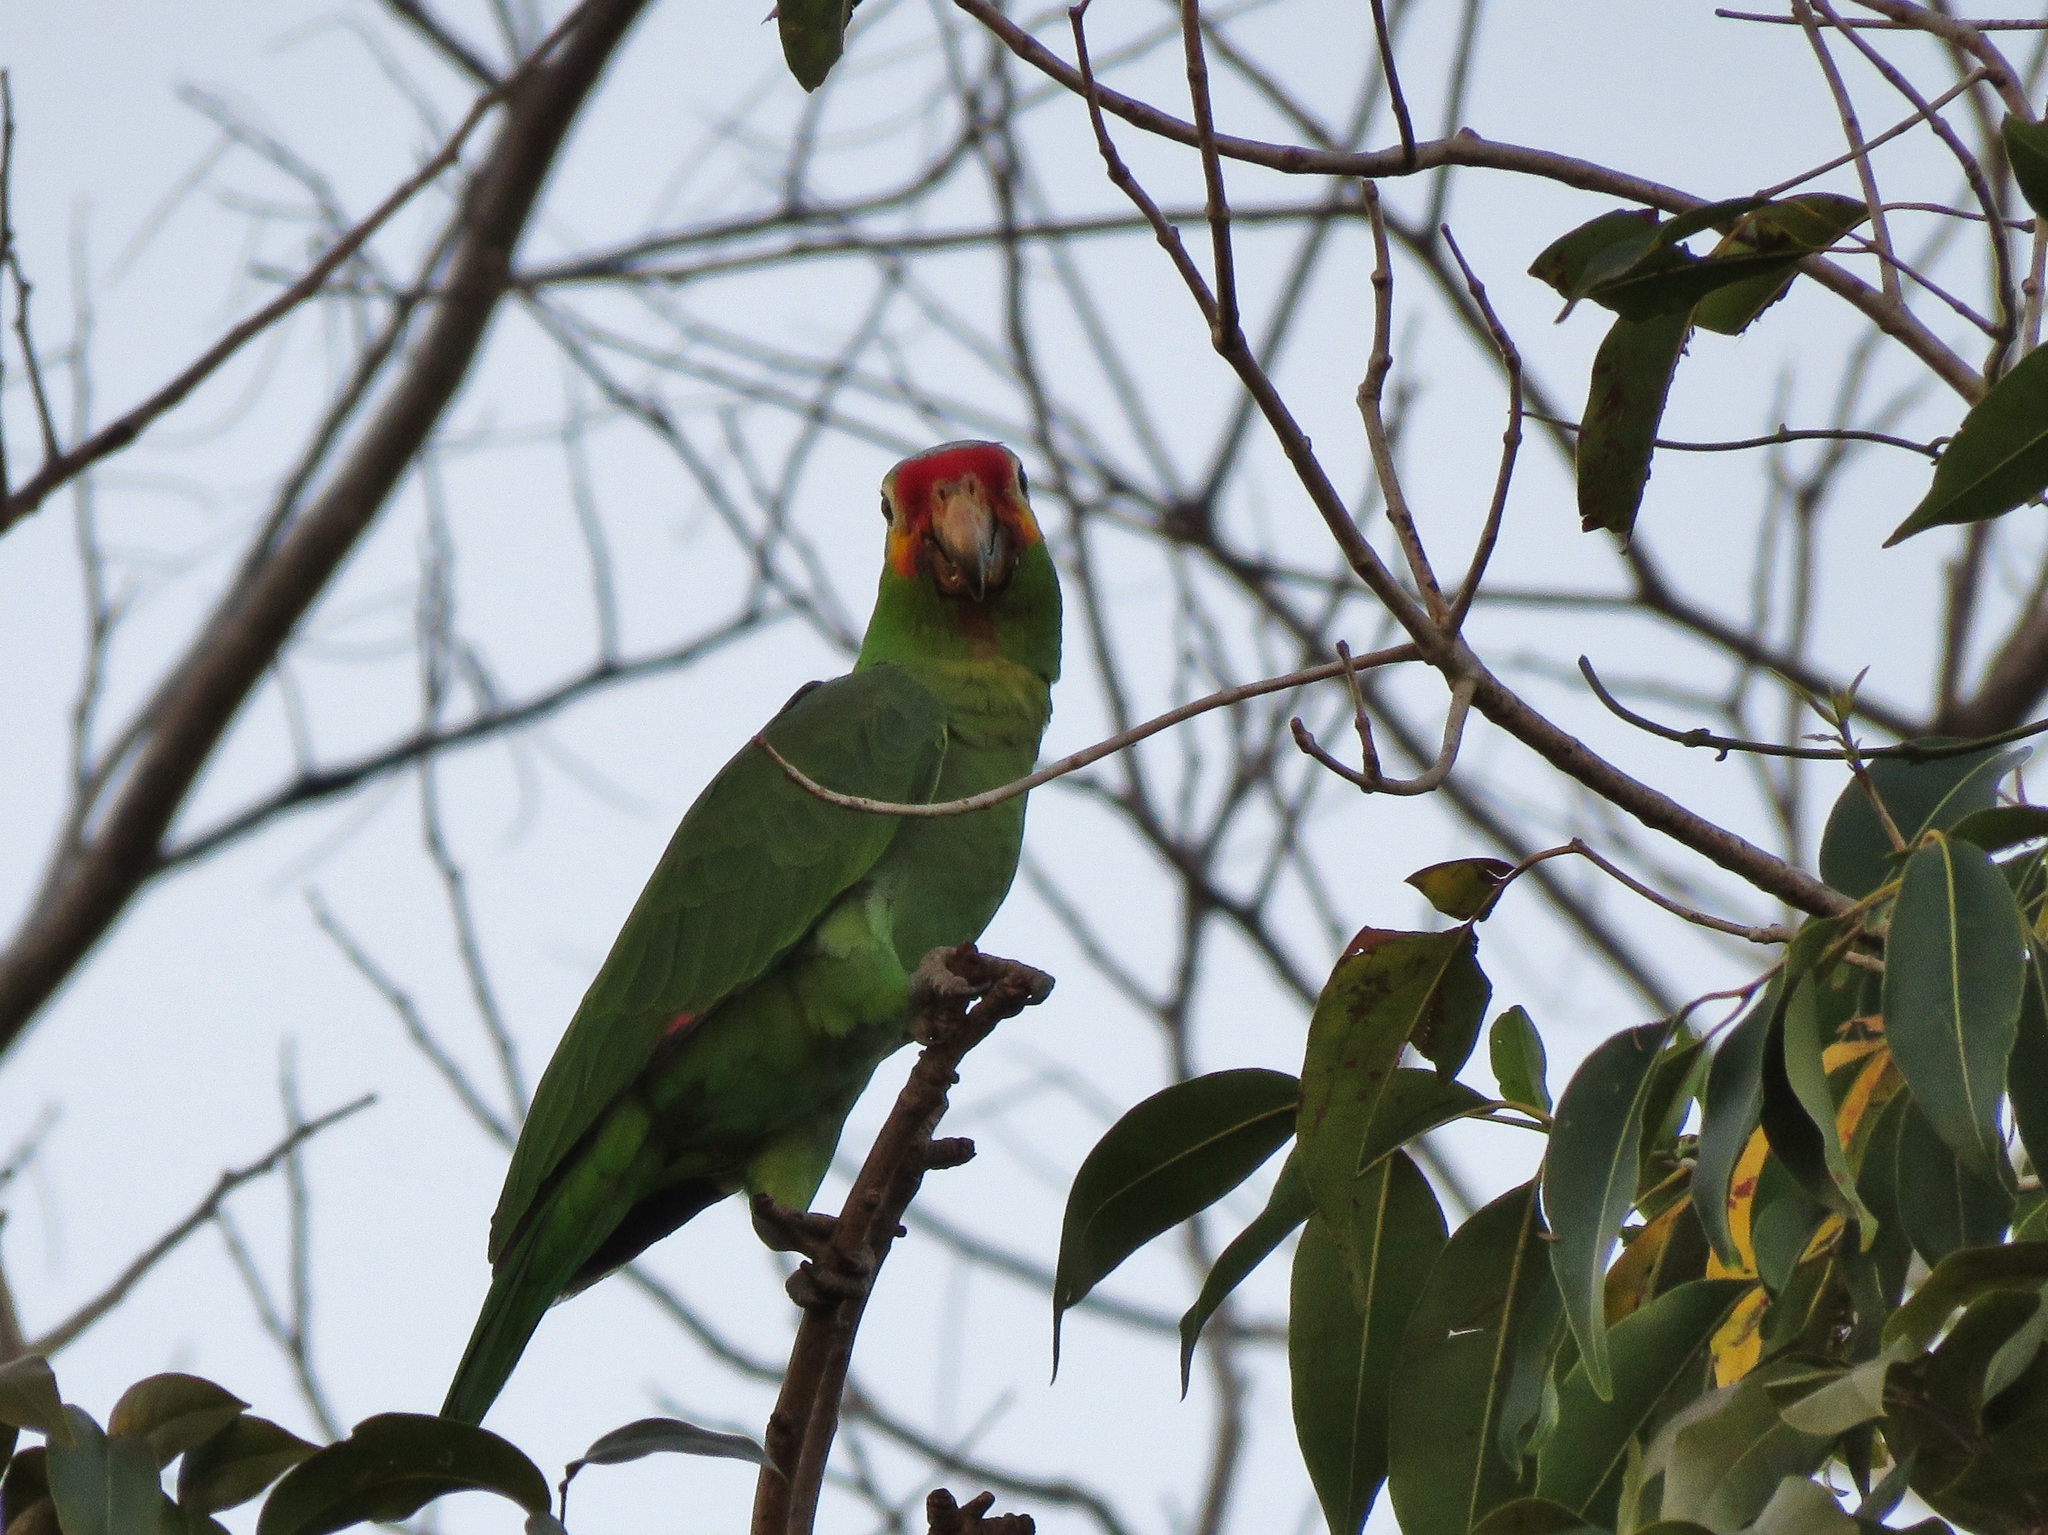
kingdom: Animalia
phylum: Chordata
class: Aves
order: Psittaciformes
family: Psittacidae
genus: Amazona
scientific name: Amazona autumnalis
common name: Red-lored amazon
